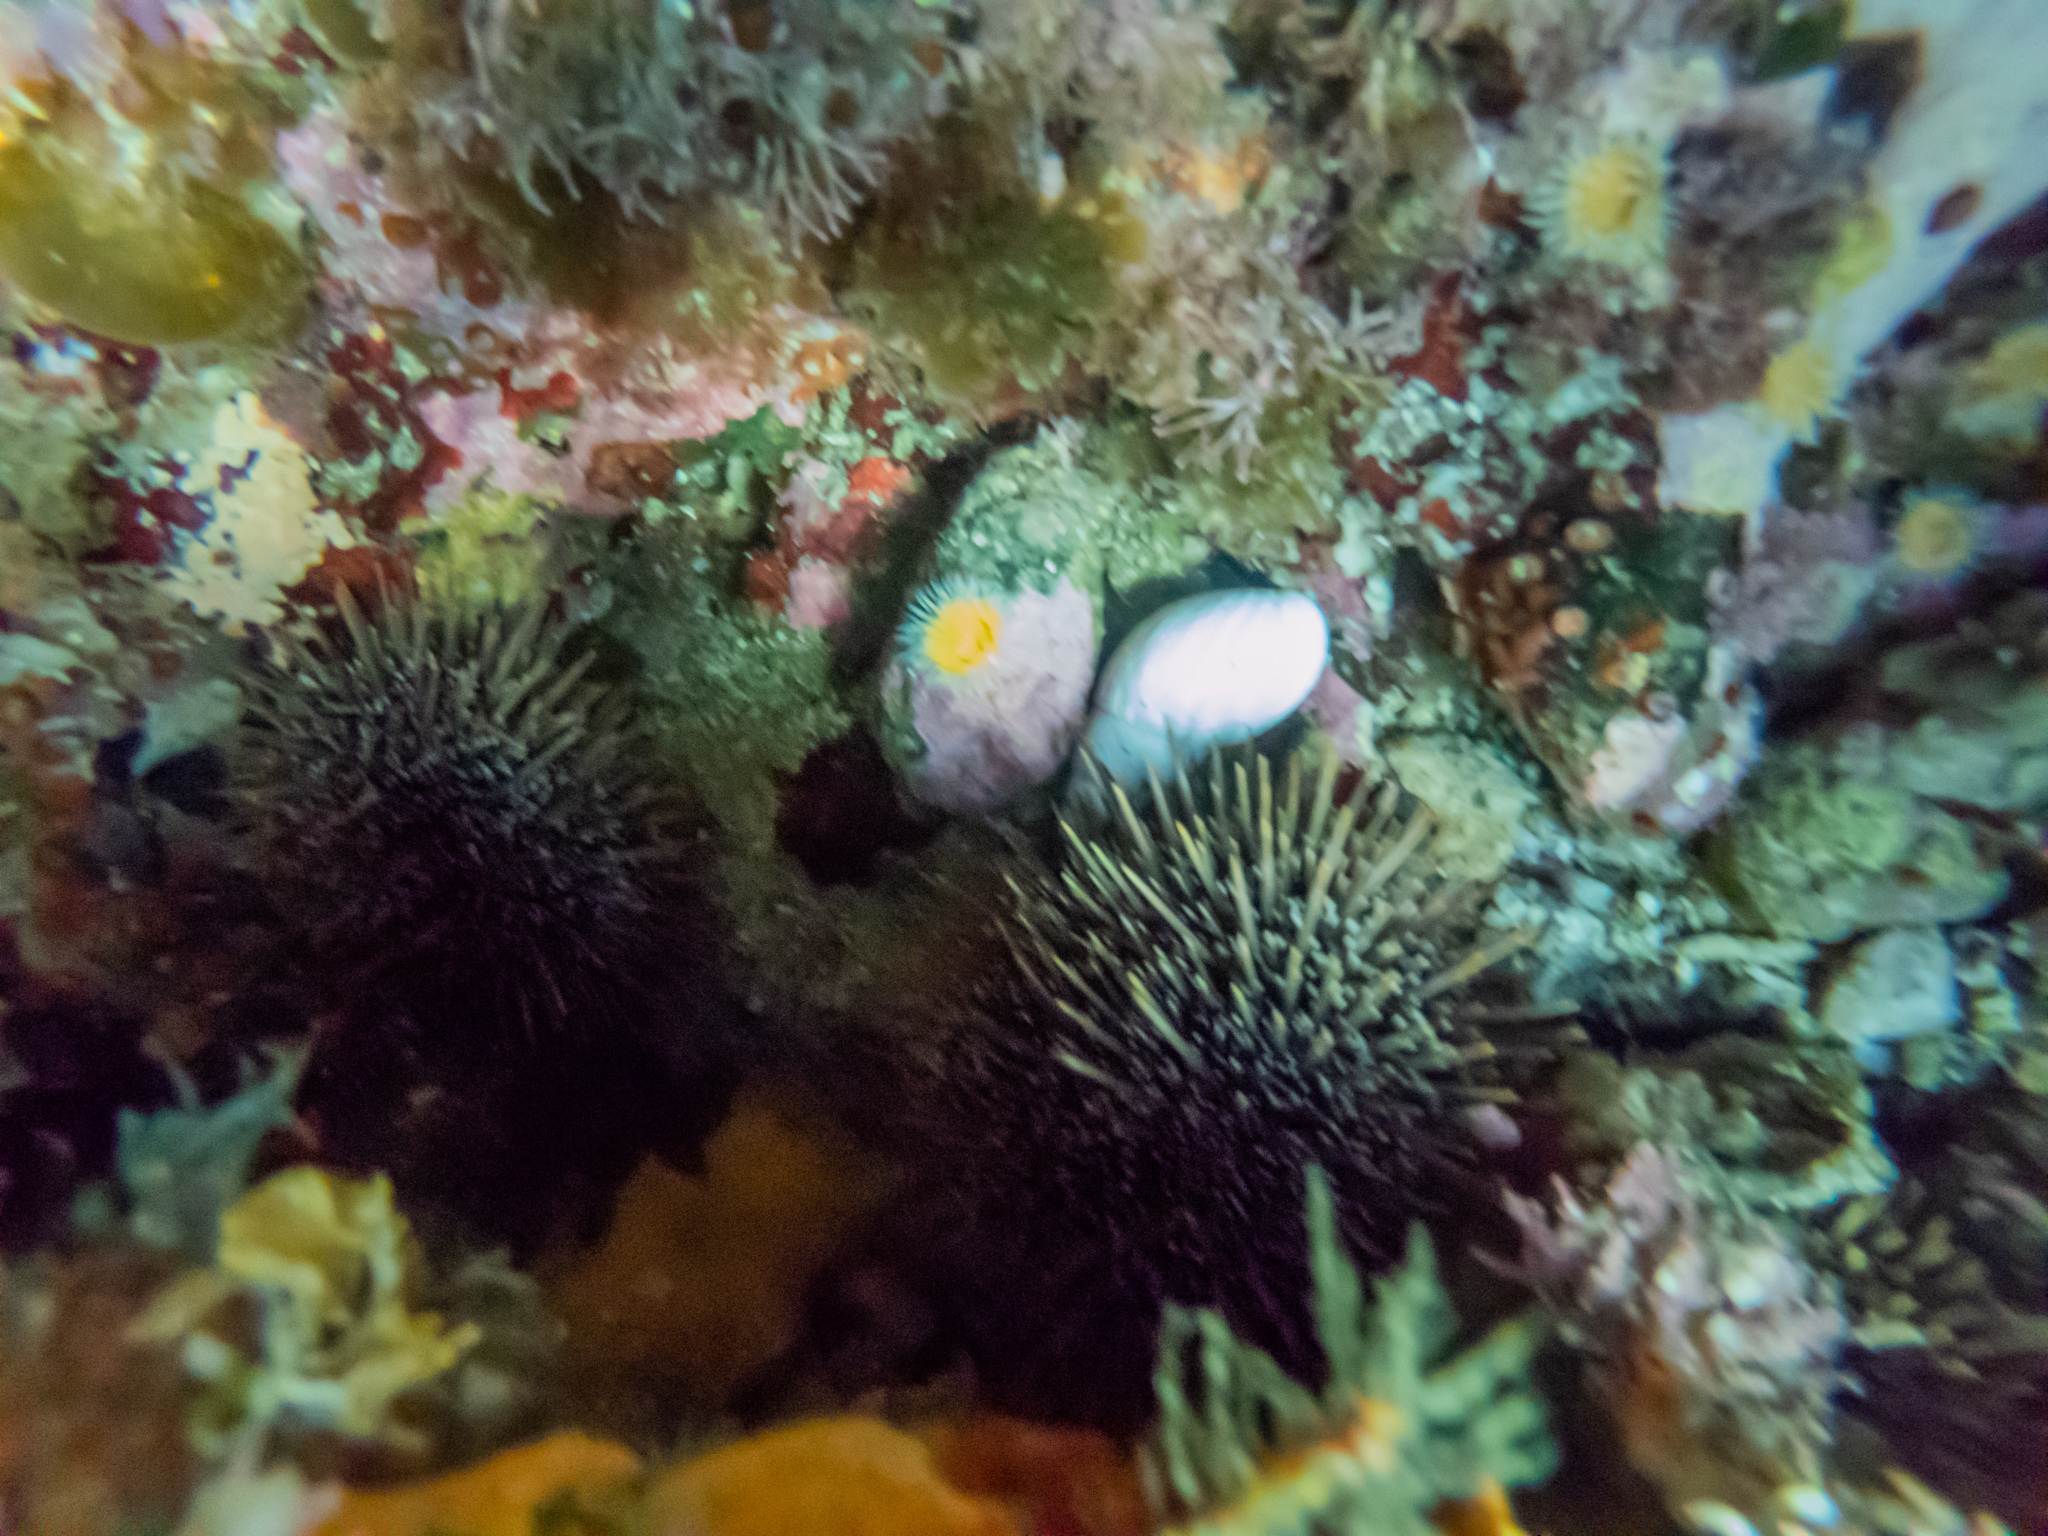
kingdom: Animalia
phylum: Mollusca
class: Gastropoda
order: Stylommatophora
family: Bothriembryontidae
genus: Maoristylus
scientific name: Maoristylus hongii
